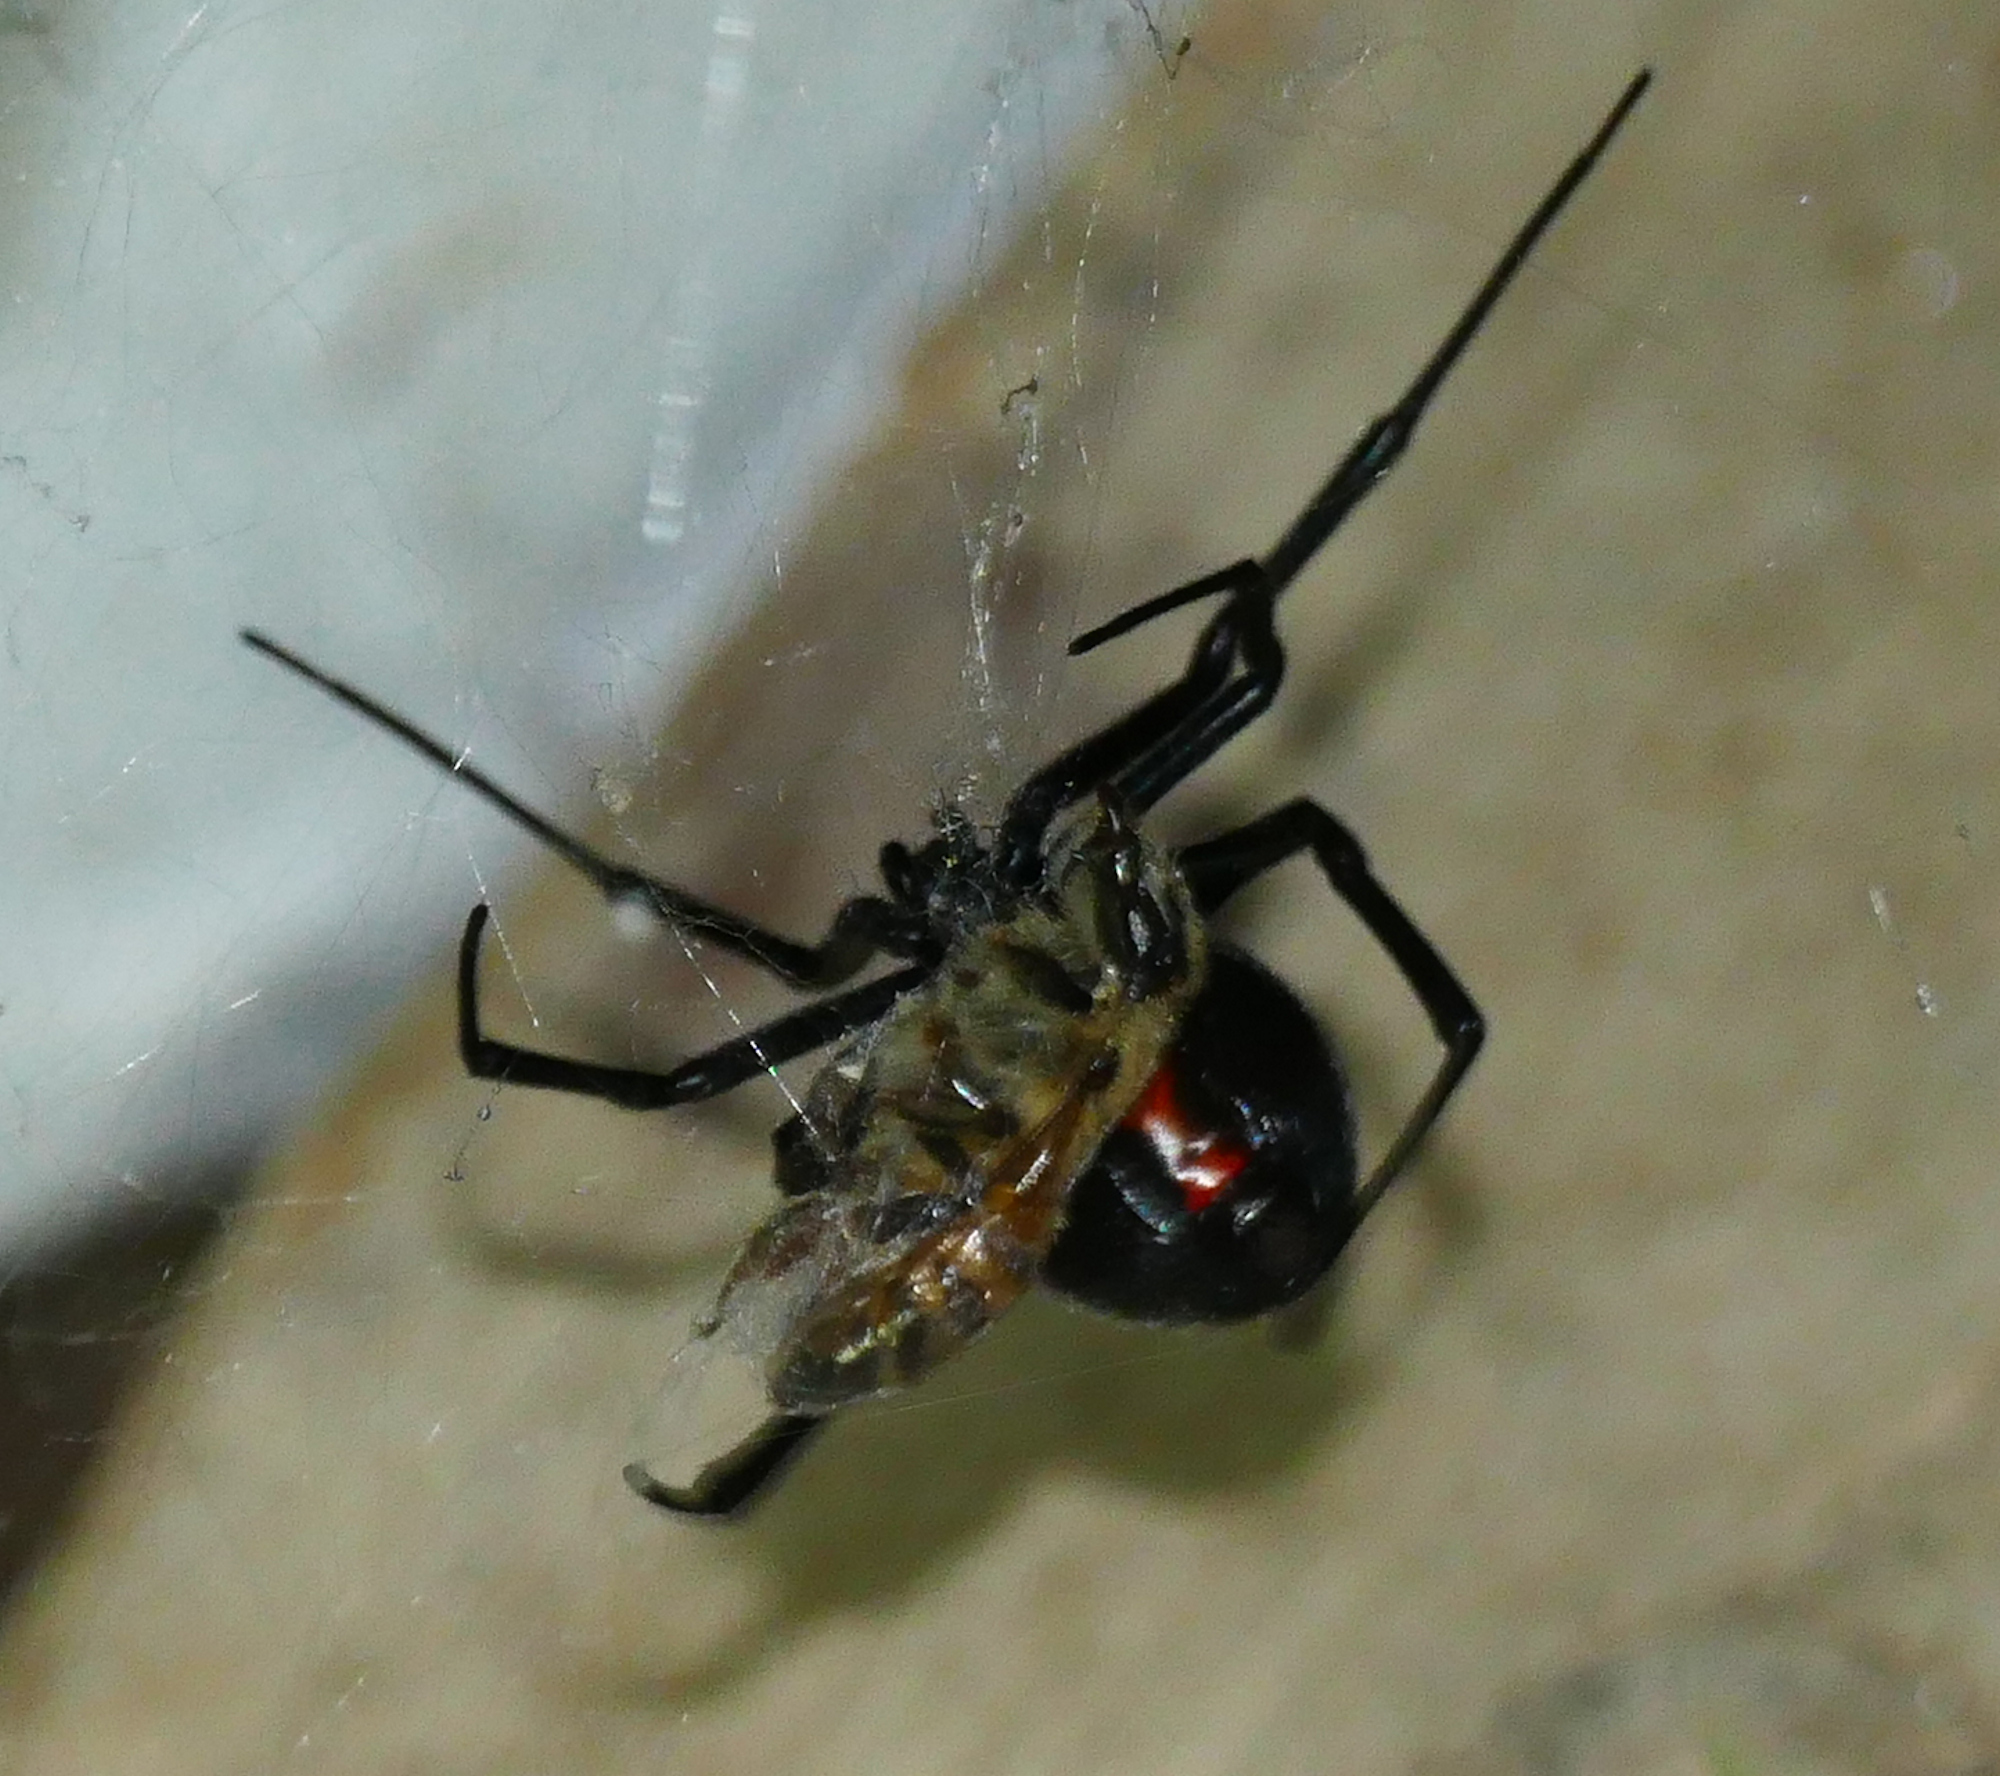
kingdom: Animalia
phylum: Arthropoda
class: Arachnida
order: Araneae
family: Theridiidae
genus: Latrodectus
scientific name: Latrodectus hesperus
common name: Western black widow
